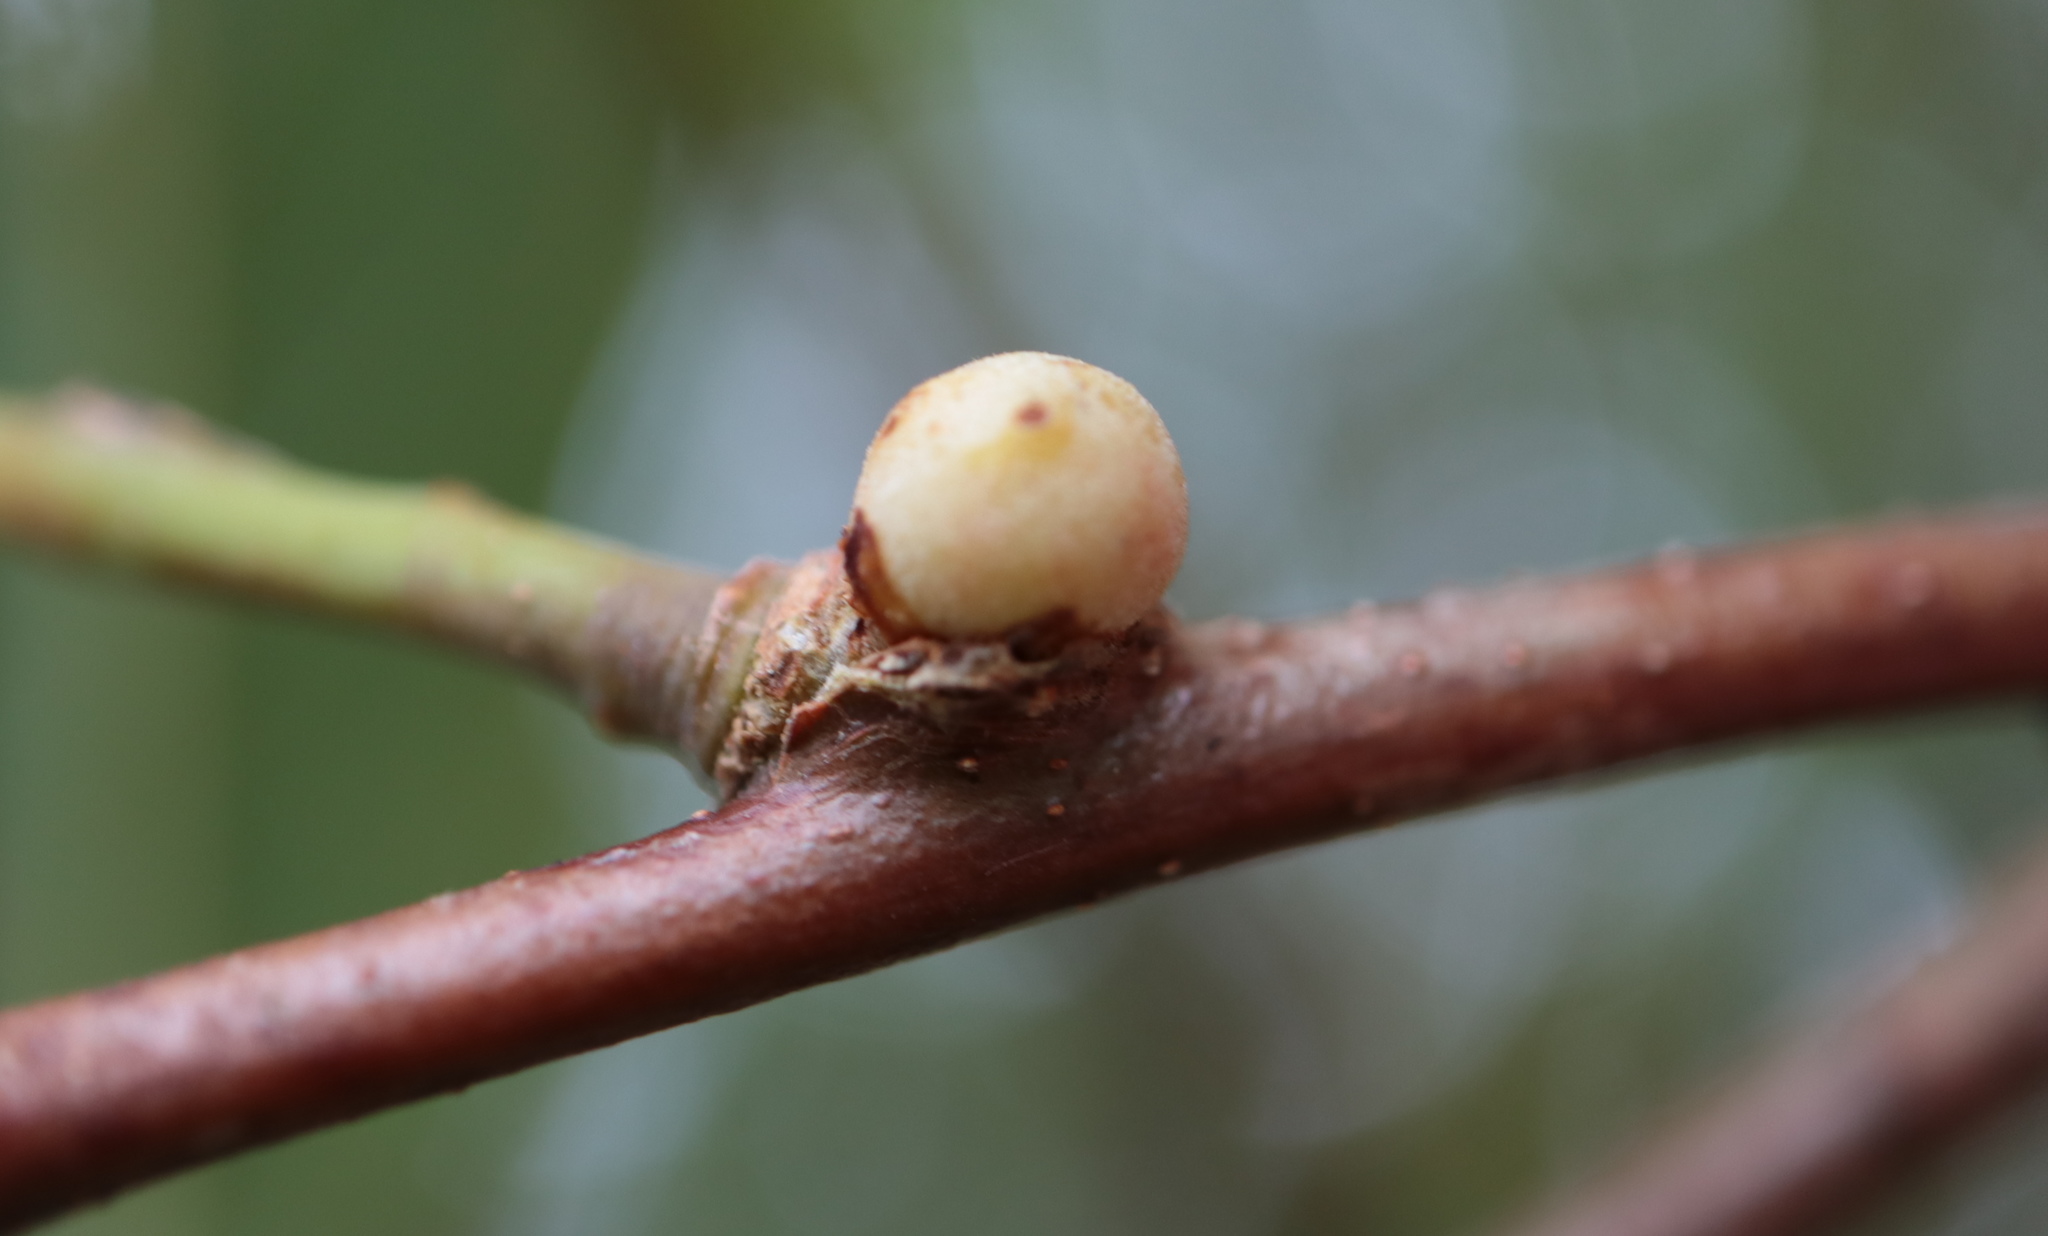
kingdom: Animalia
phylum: Arthropoda
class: Insecta
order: Hymenoptera
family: Cynipidae
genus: Disholcaspis
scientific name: Disholcaspis quercusglobulus
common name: Round bullet gall wasp
